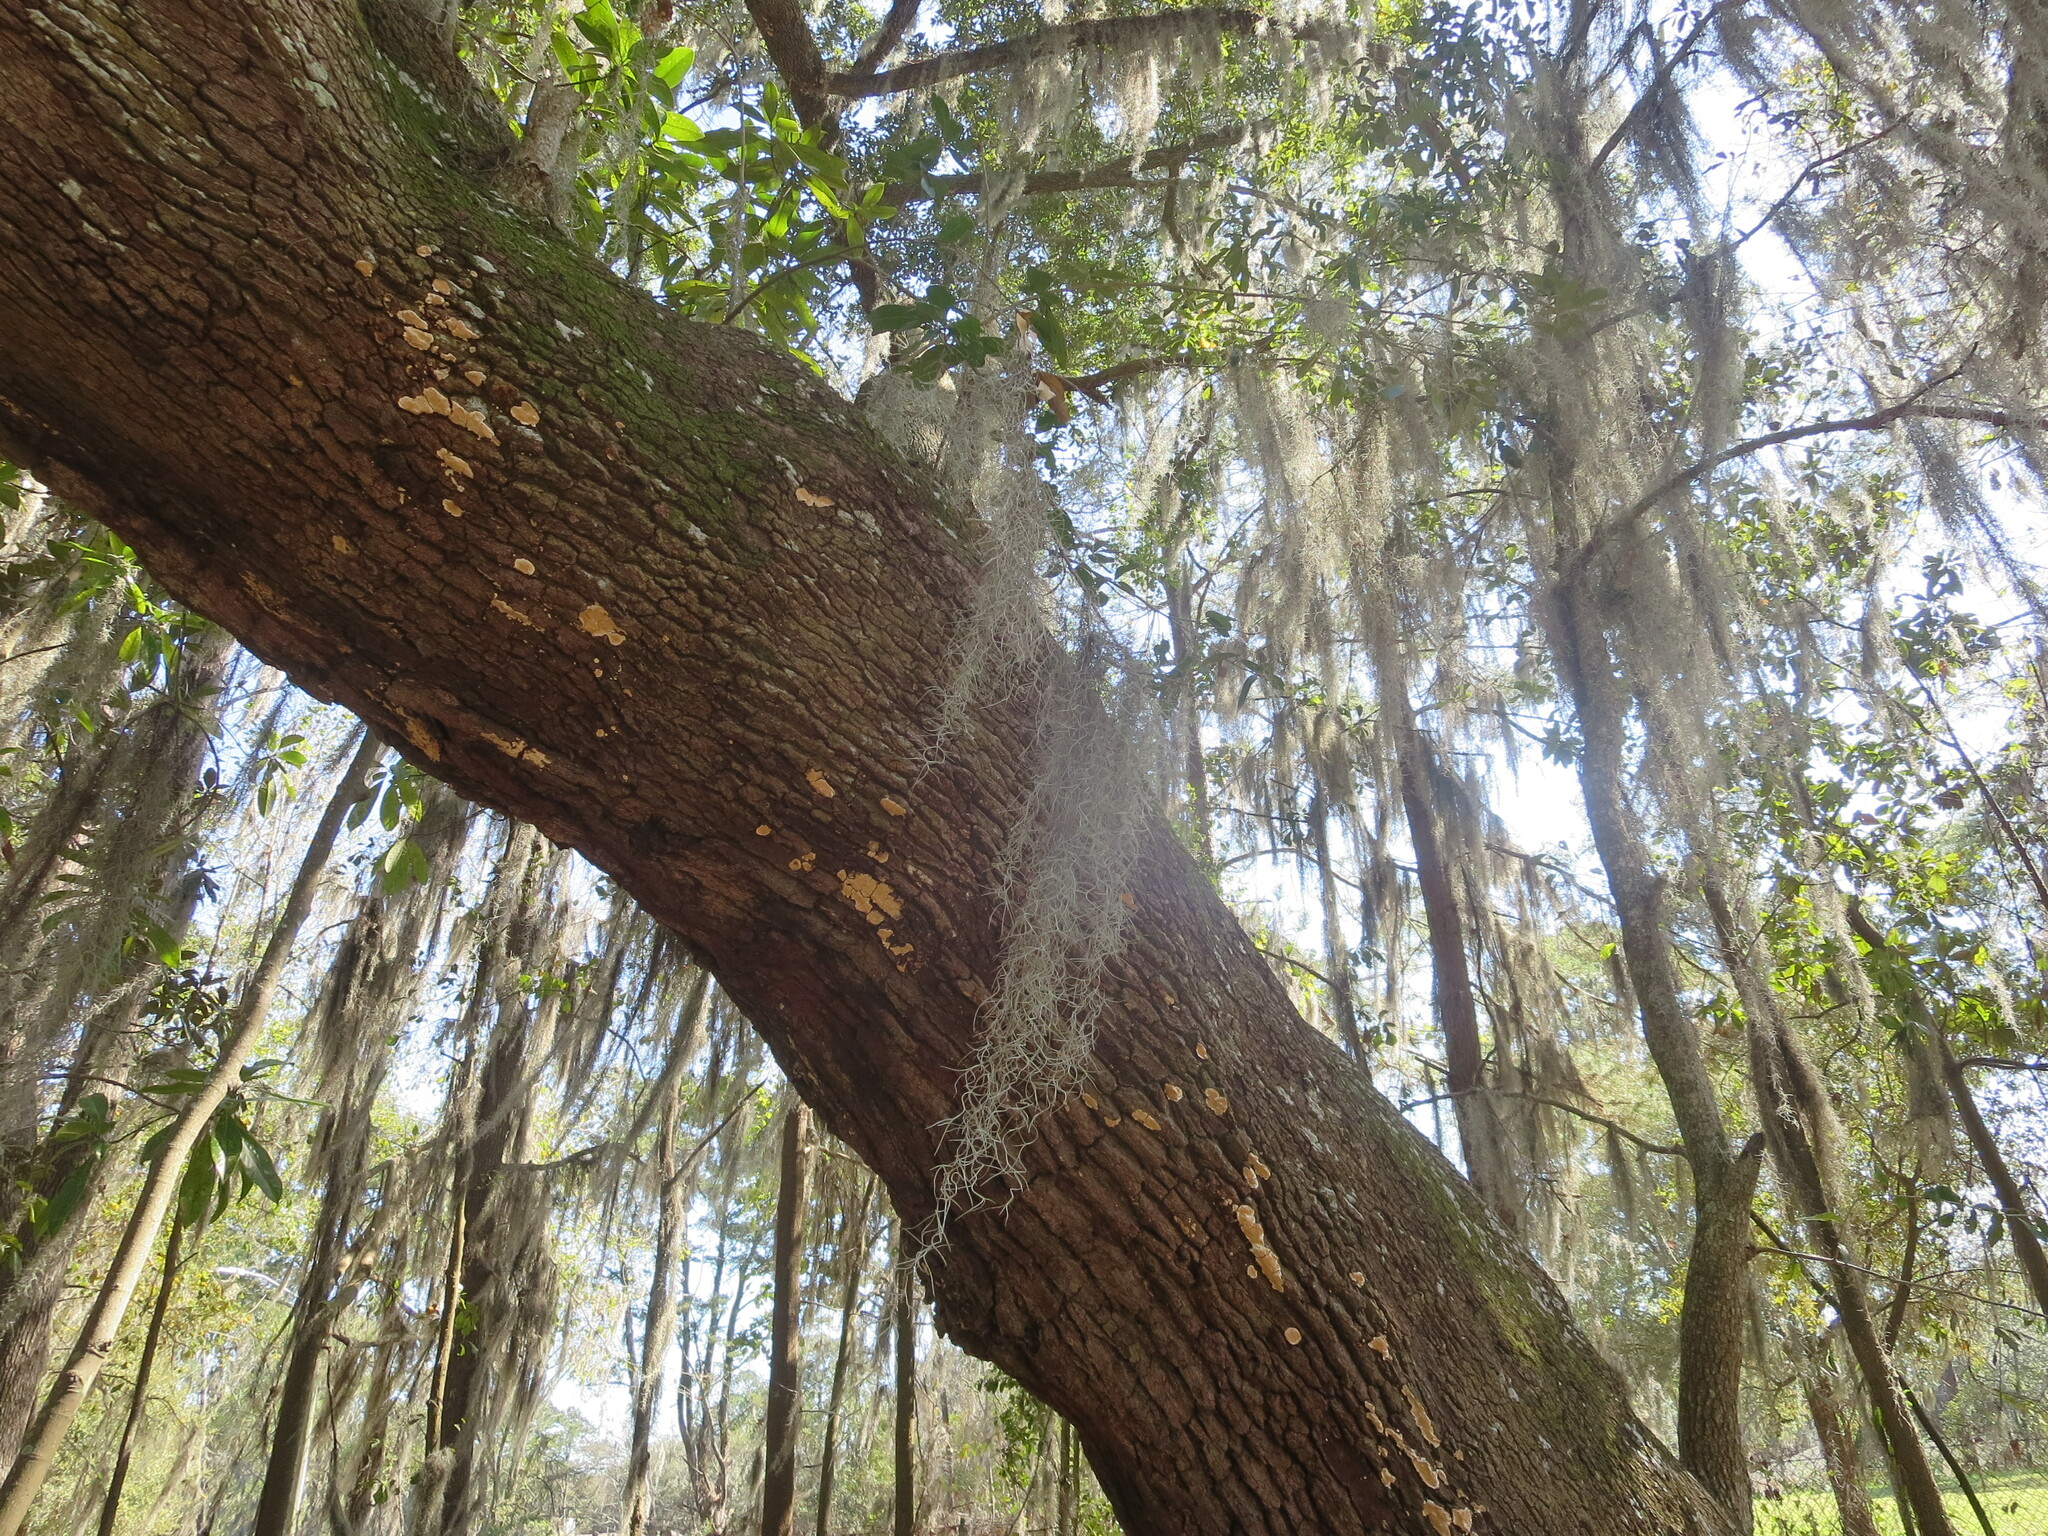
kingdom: Plantae
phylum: Tracheophyta
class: Liliopsida
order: Poales
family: Bromeliaceae
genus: Tillandsia
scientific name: Tillandsia usneoides
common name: Spanish moss
